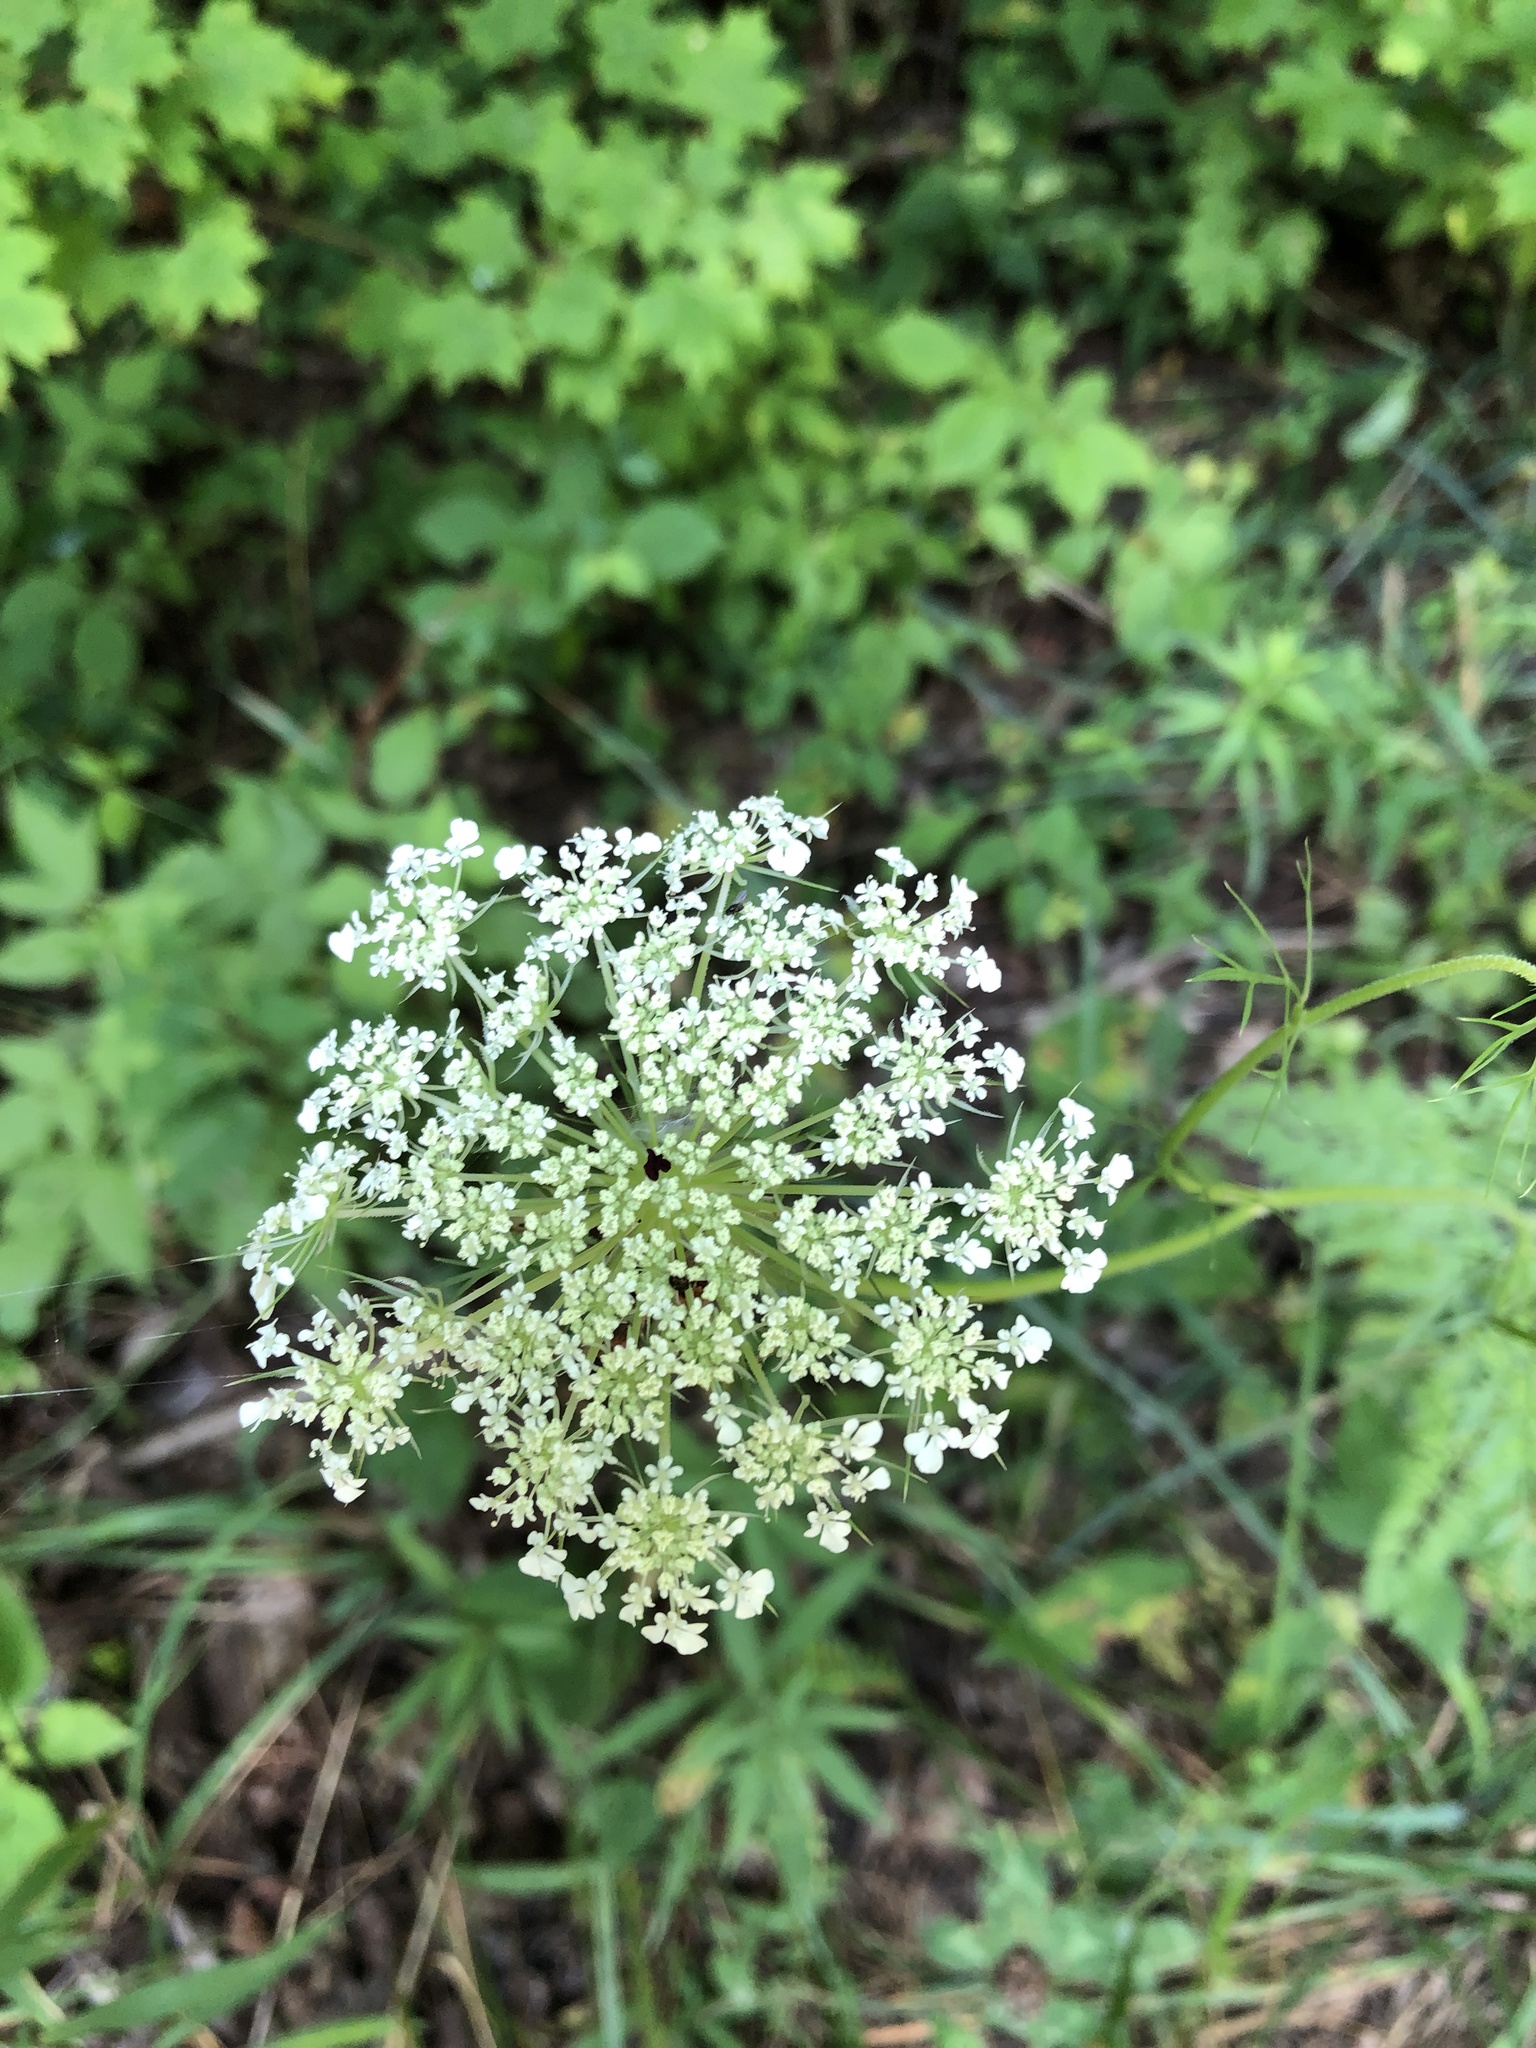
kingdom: Plantae
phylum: Tracheophyta
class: Magnoliopsida
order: Apiales
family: Apiaceae
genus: Daucus
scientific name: Daucus carota
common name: Wild carrot
